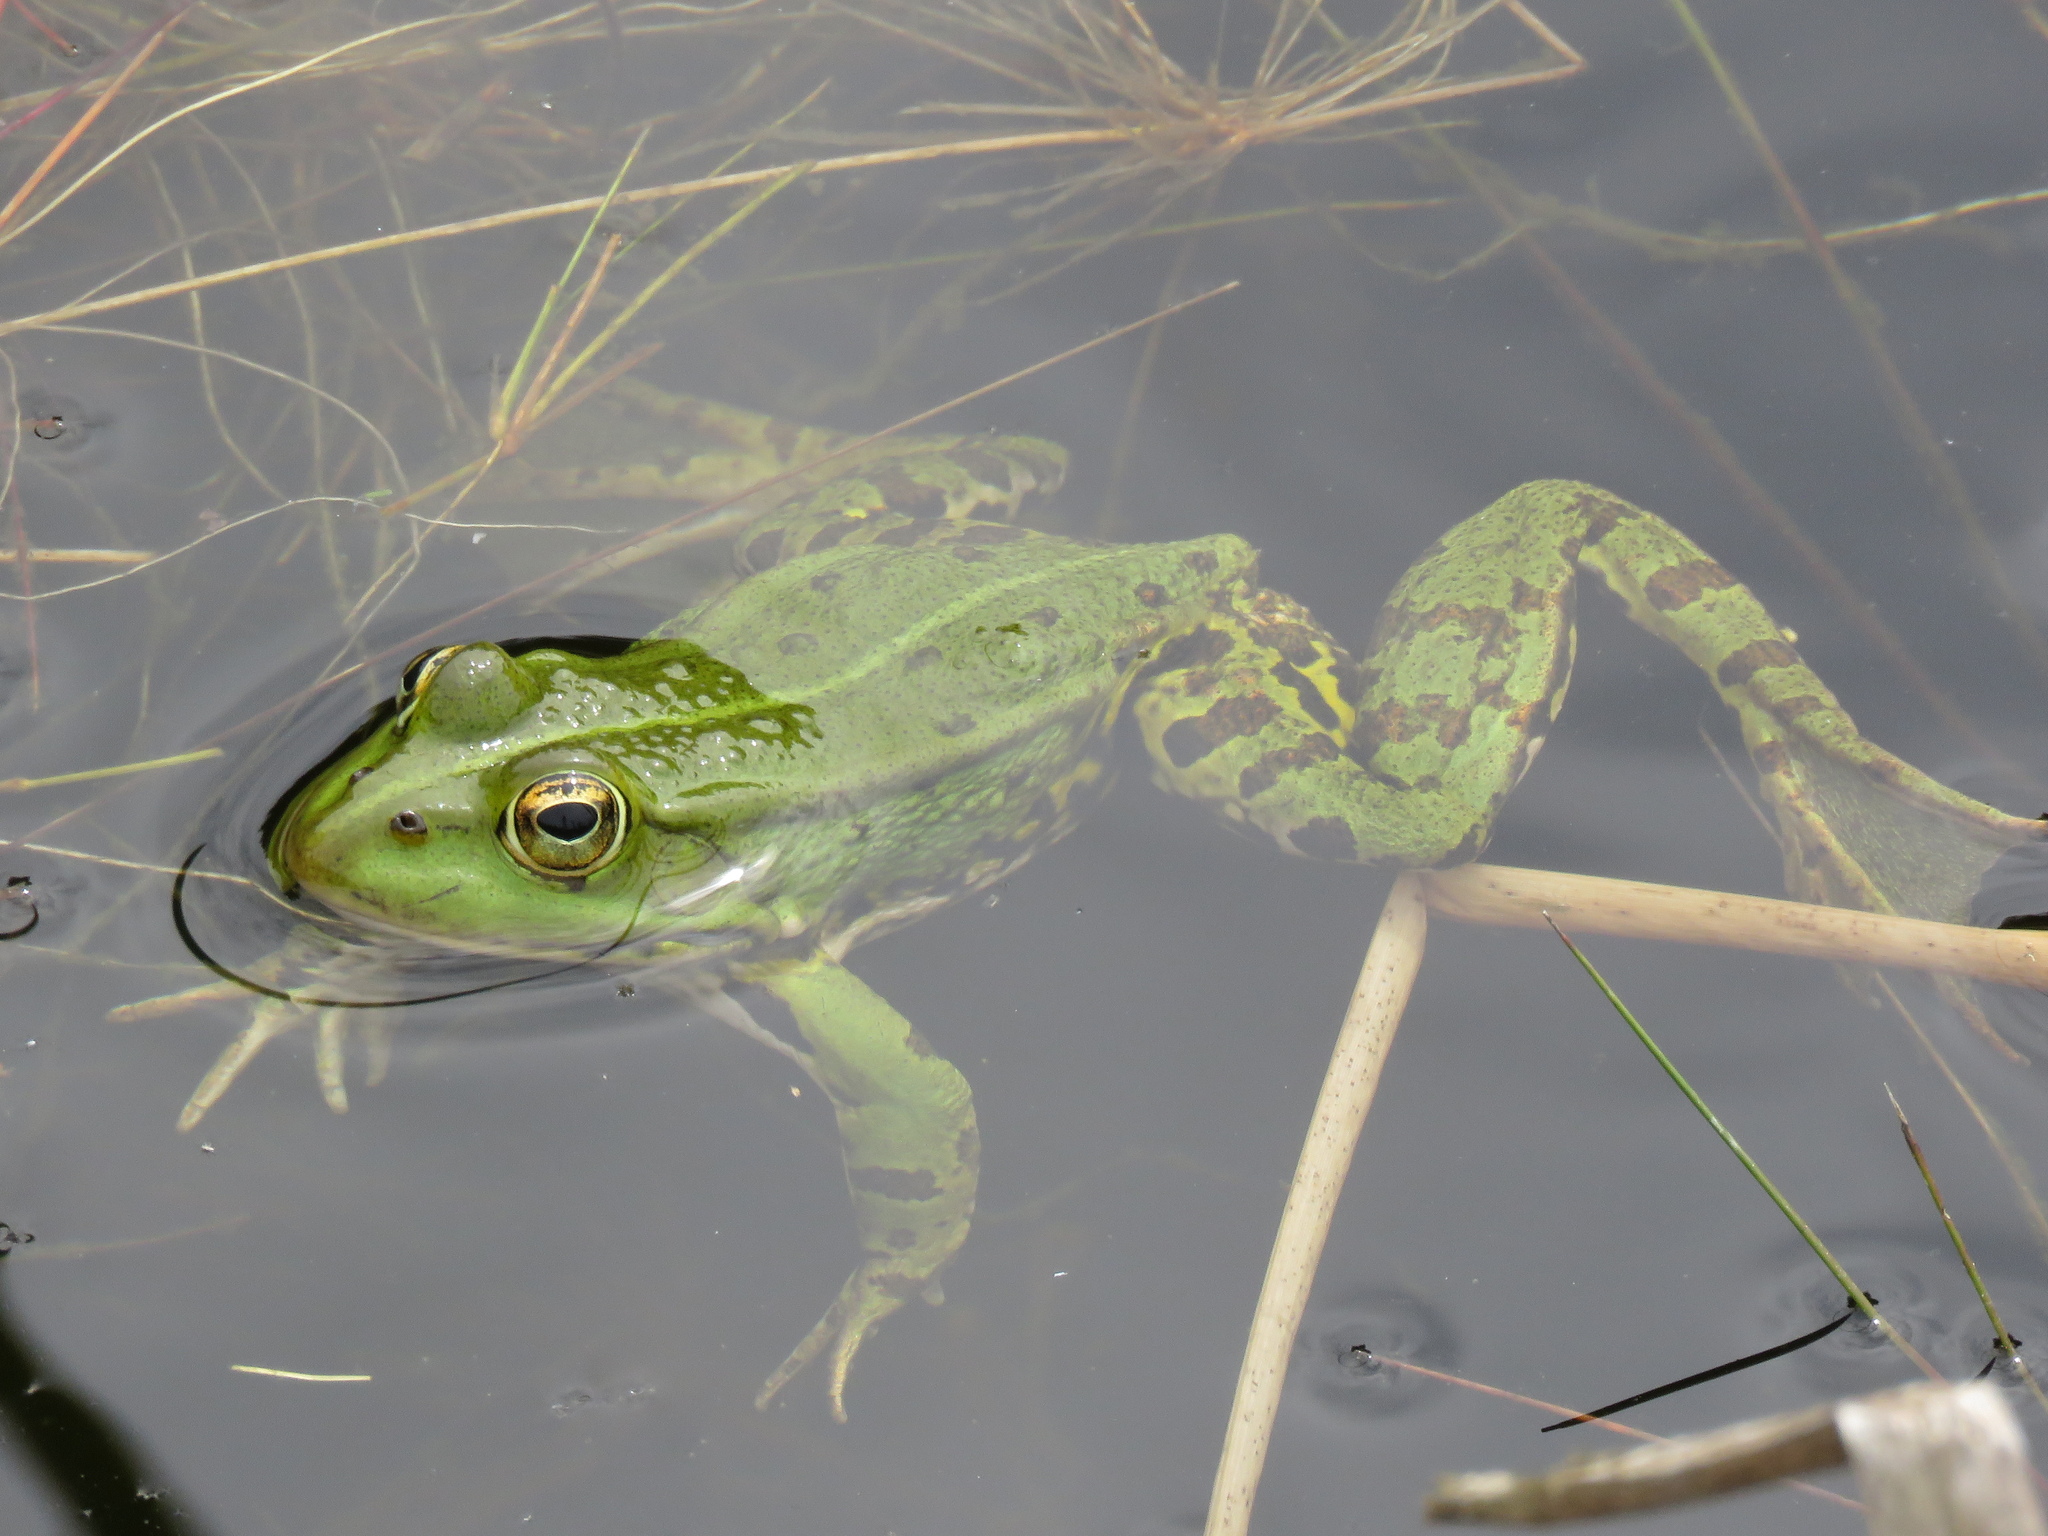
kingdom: Animalia
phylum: Chordata
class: Amphibia
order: Anura
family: Ranidae
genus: Pelophylax
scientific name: Pelophylax
